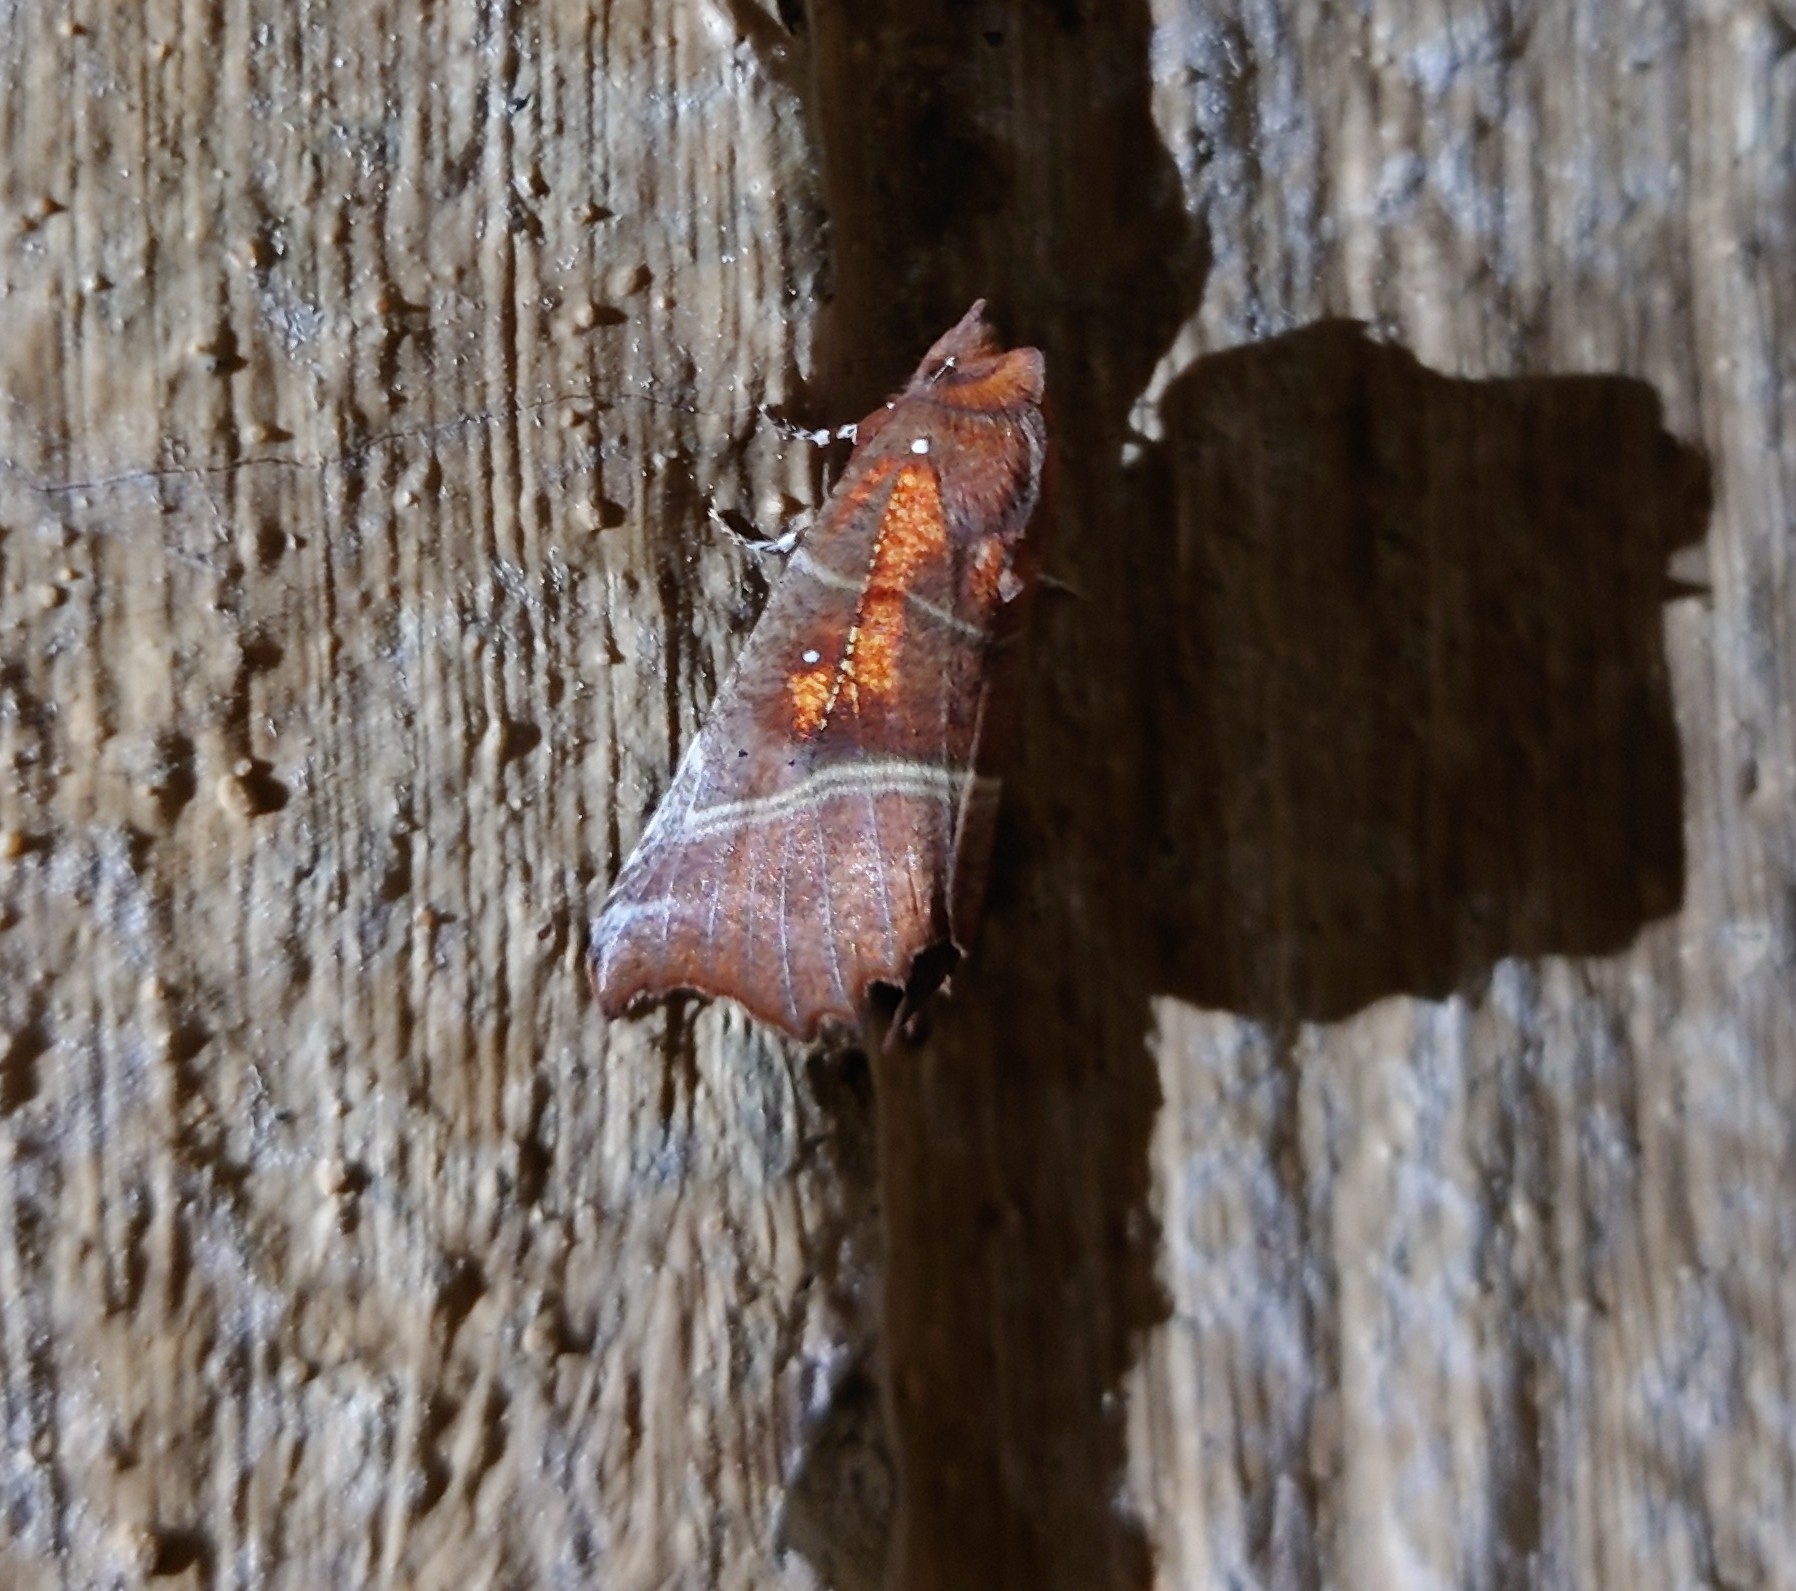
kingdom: Animalia
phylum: Arthropoda
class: Insecta
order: Lepidoptera
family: Erebidae
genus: Scoliopteryx
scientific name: Scoliopteryx libatrix
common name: Herald
